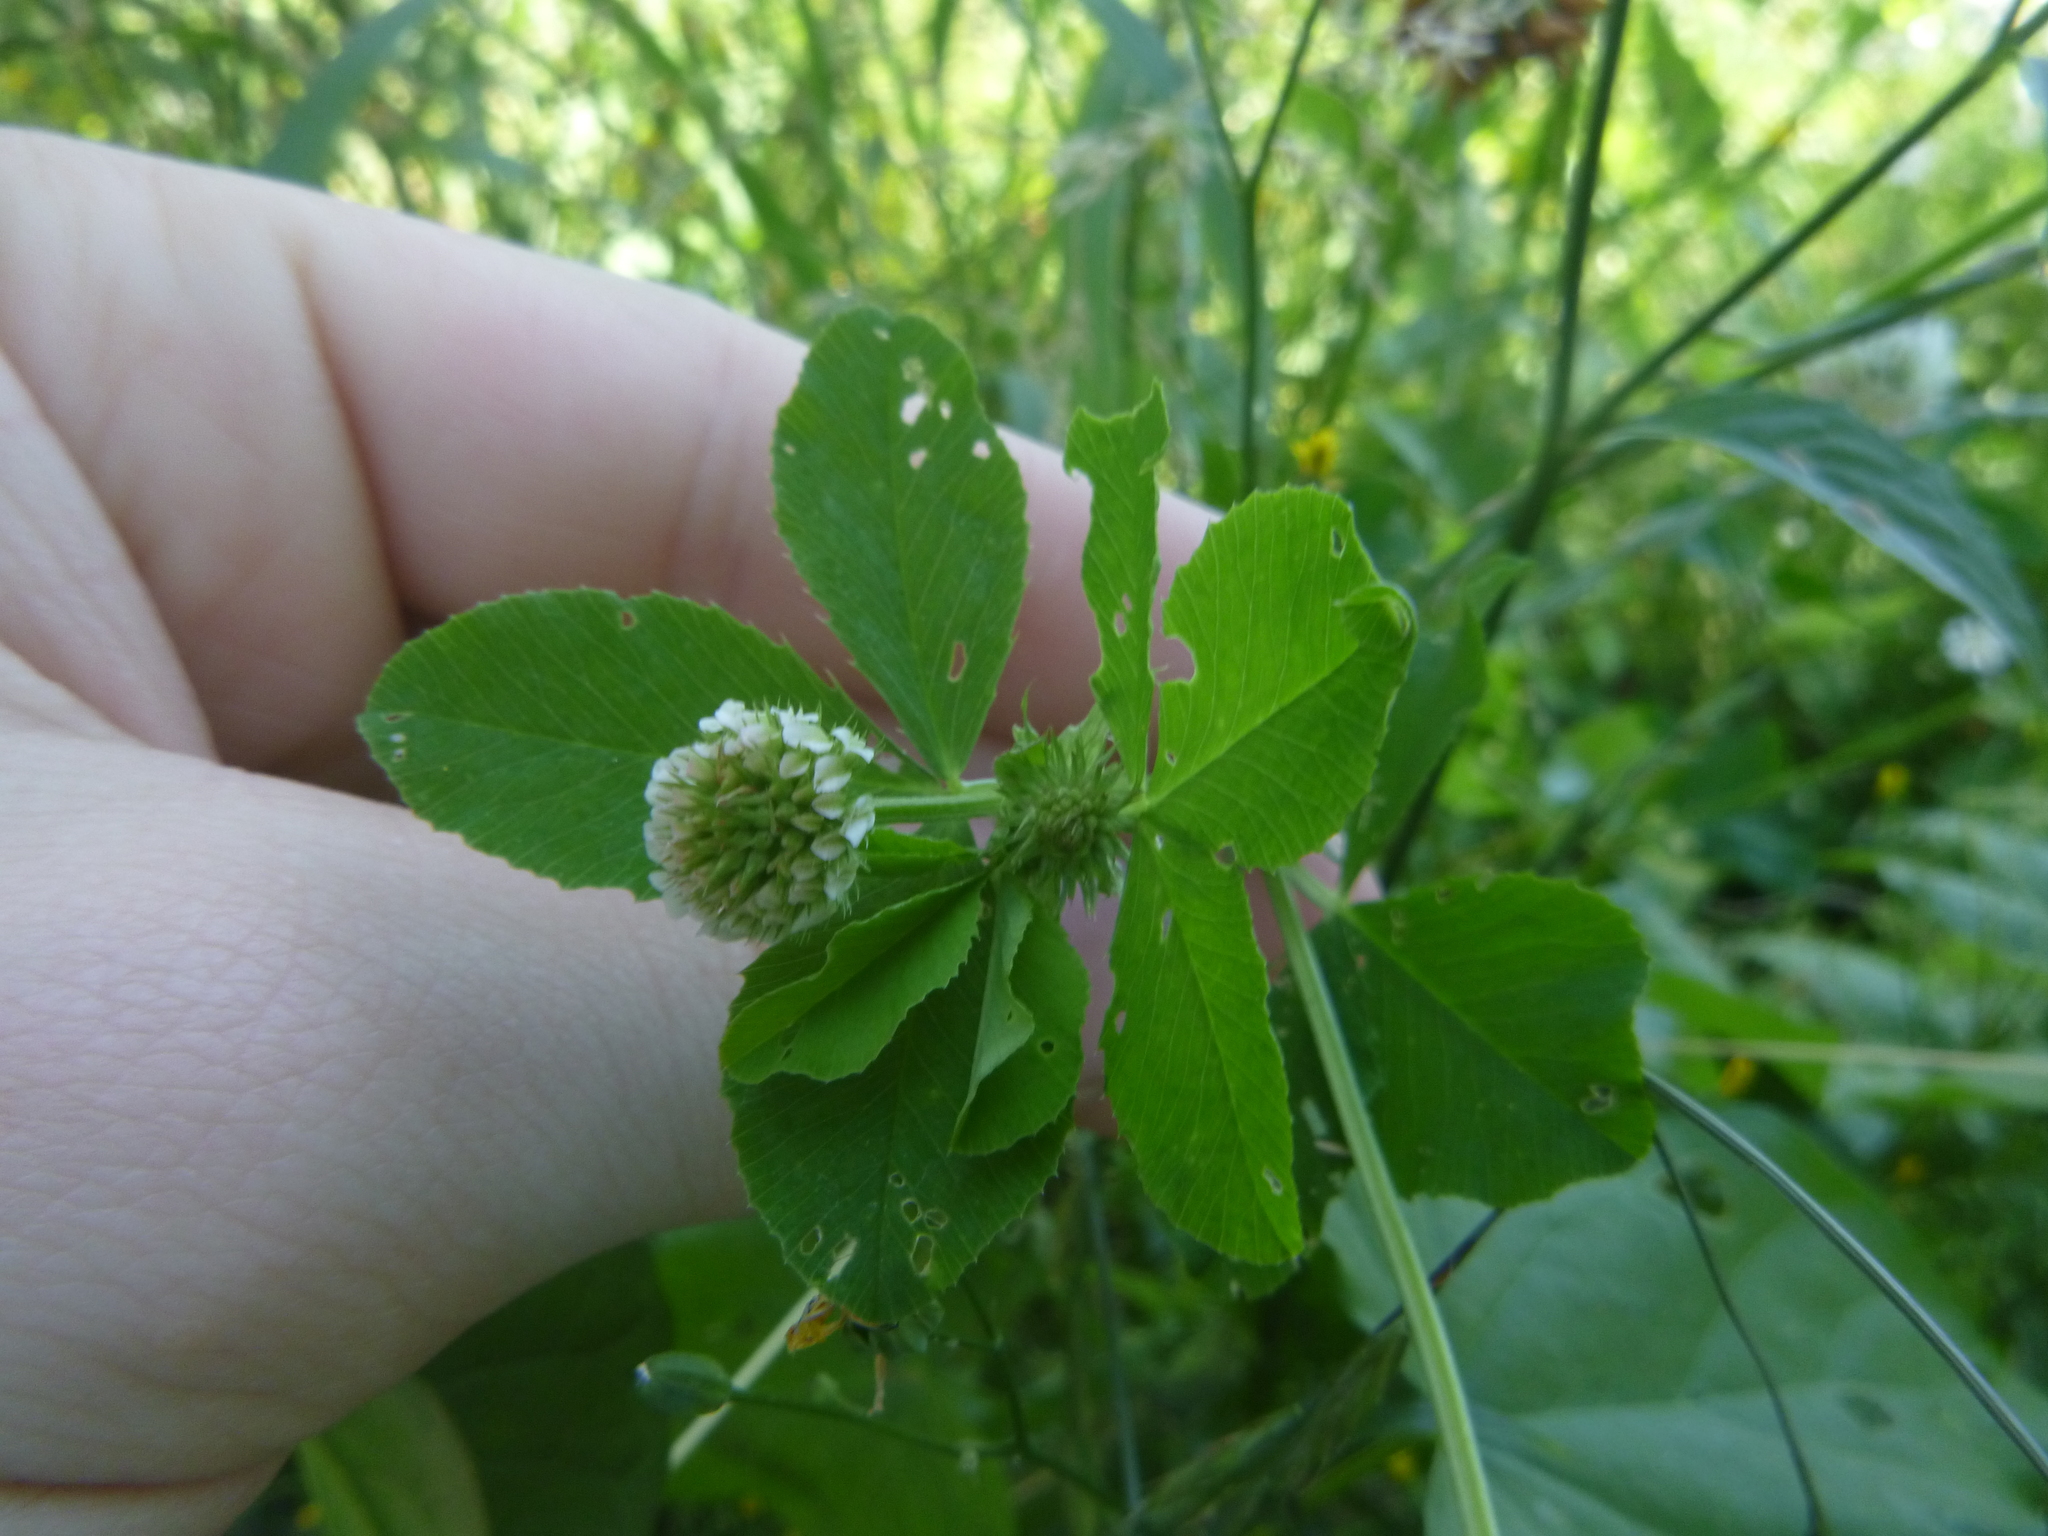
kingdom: Plantae
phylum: Tracheophyta
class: Magnoliopsida
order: Fabales
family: Fabaceae
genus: Trifolium
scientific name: Trifolium hybridum
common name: Alsike clover
